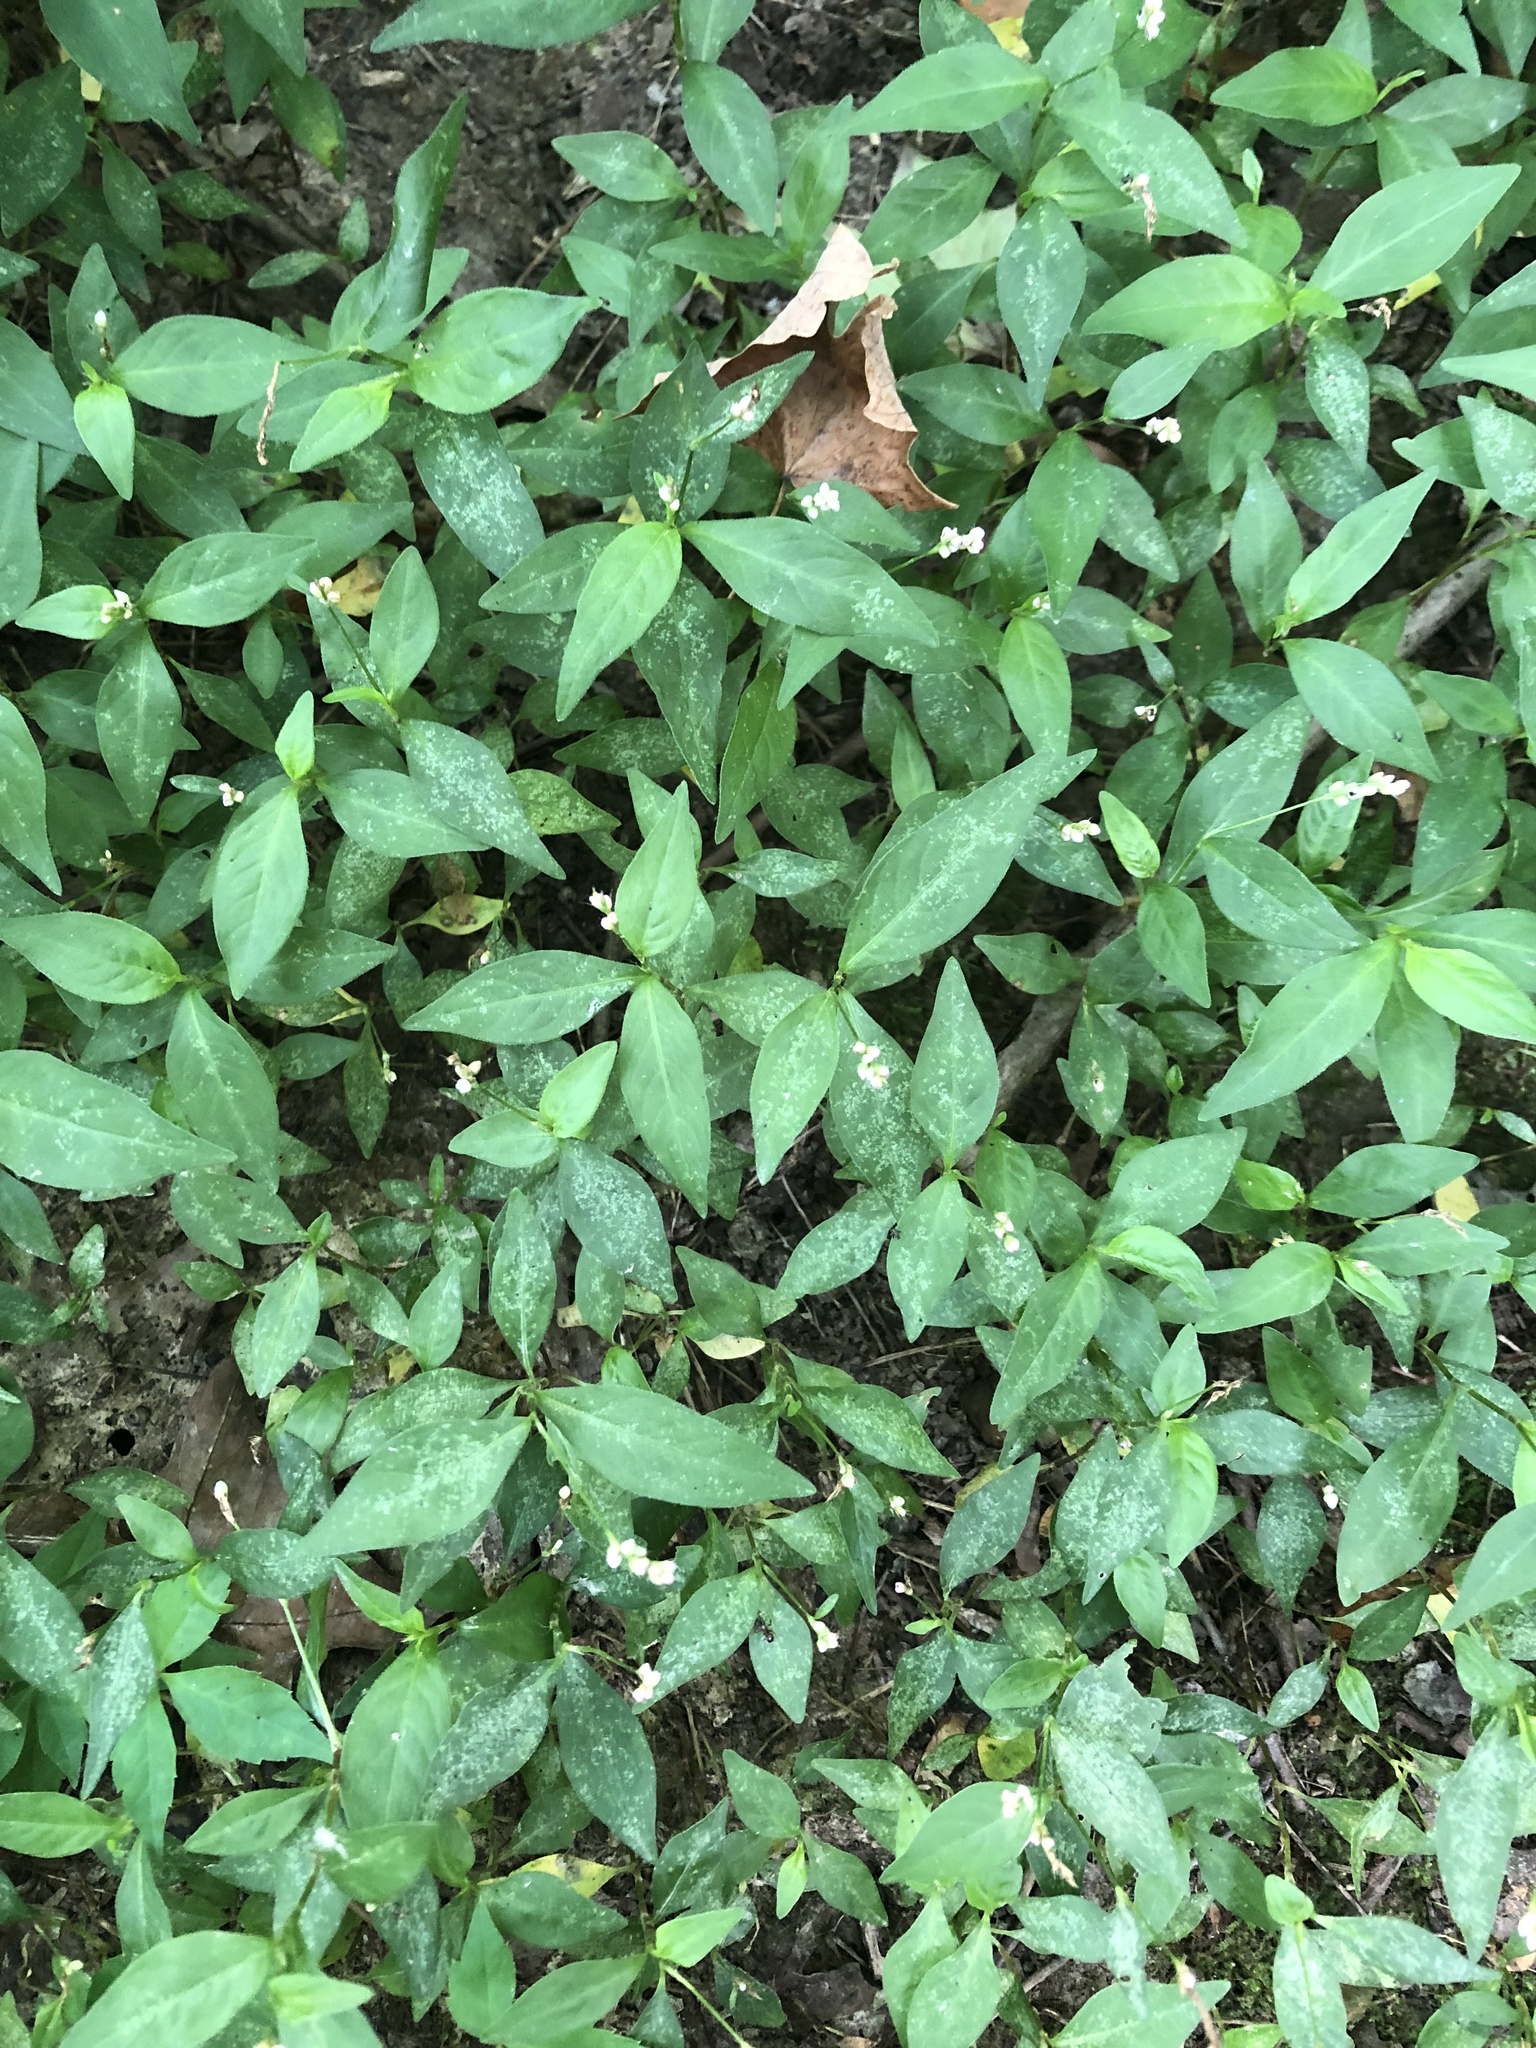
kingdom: Plantae
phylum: Tracheophyta
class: Magnoliopsida
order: Caryophyllales
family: Polygonaceae
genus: Persicaria
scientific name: Persicaria longiseta
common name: Bristly lady's-thumb
